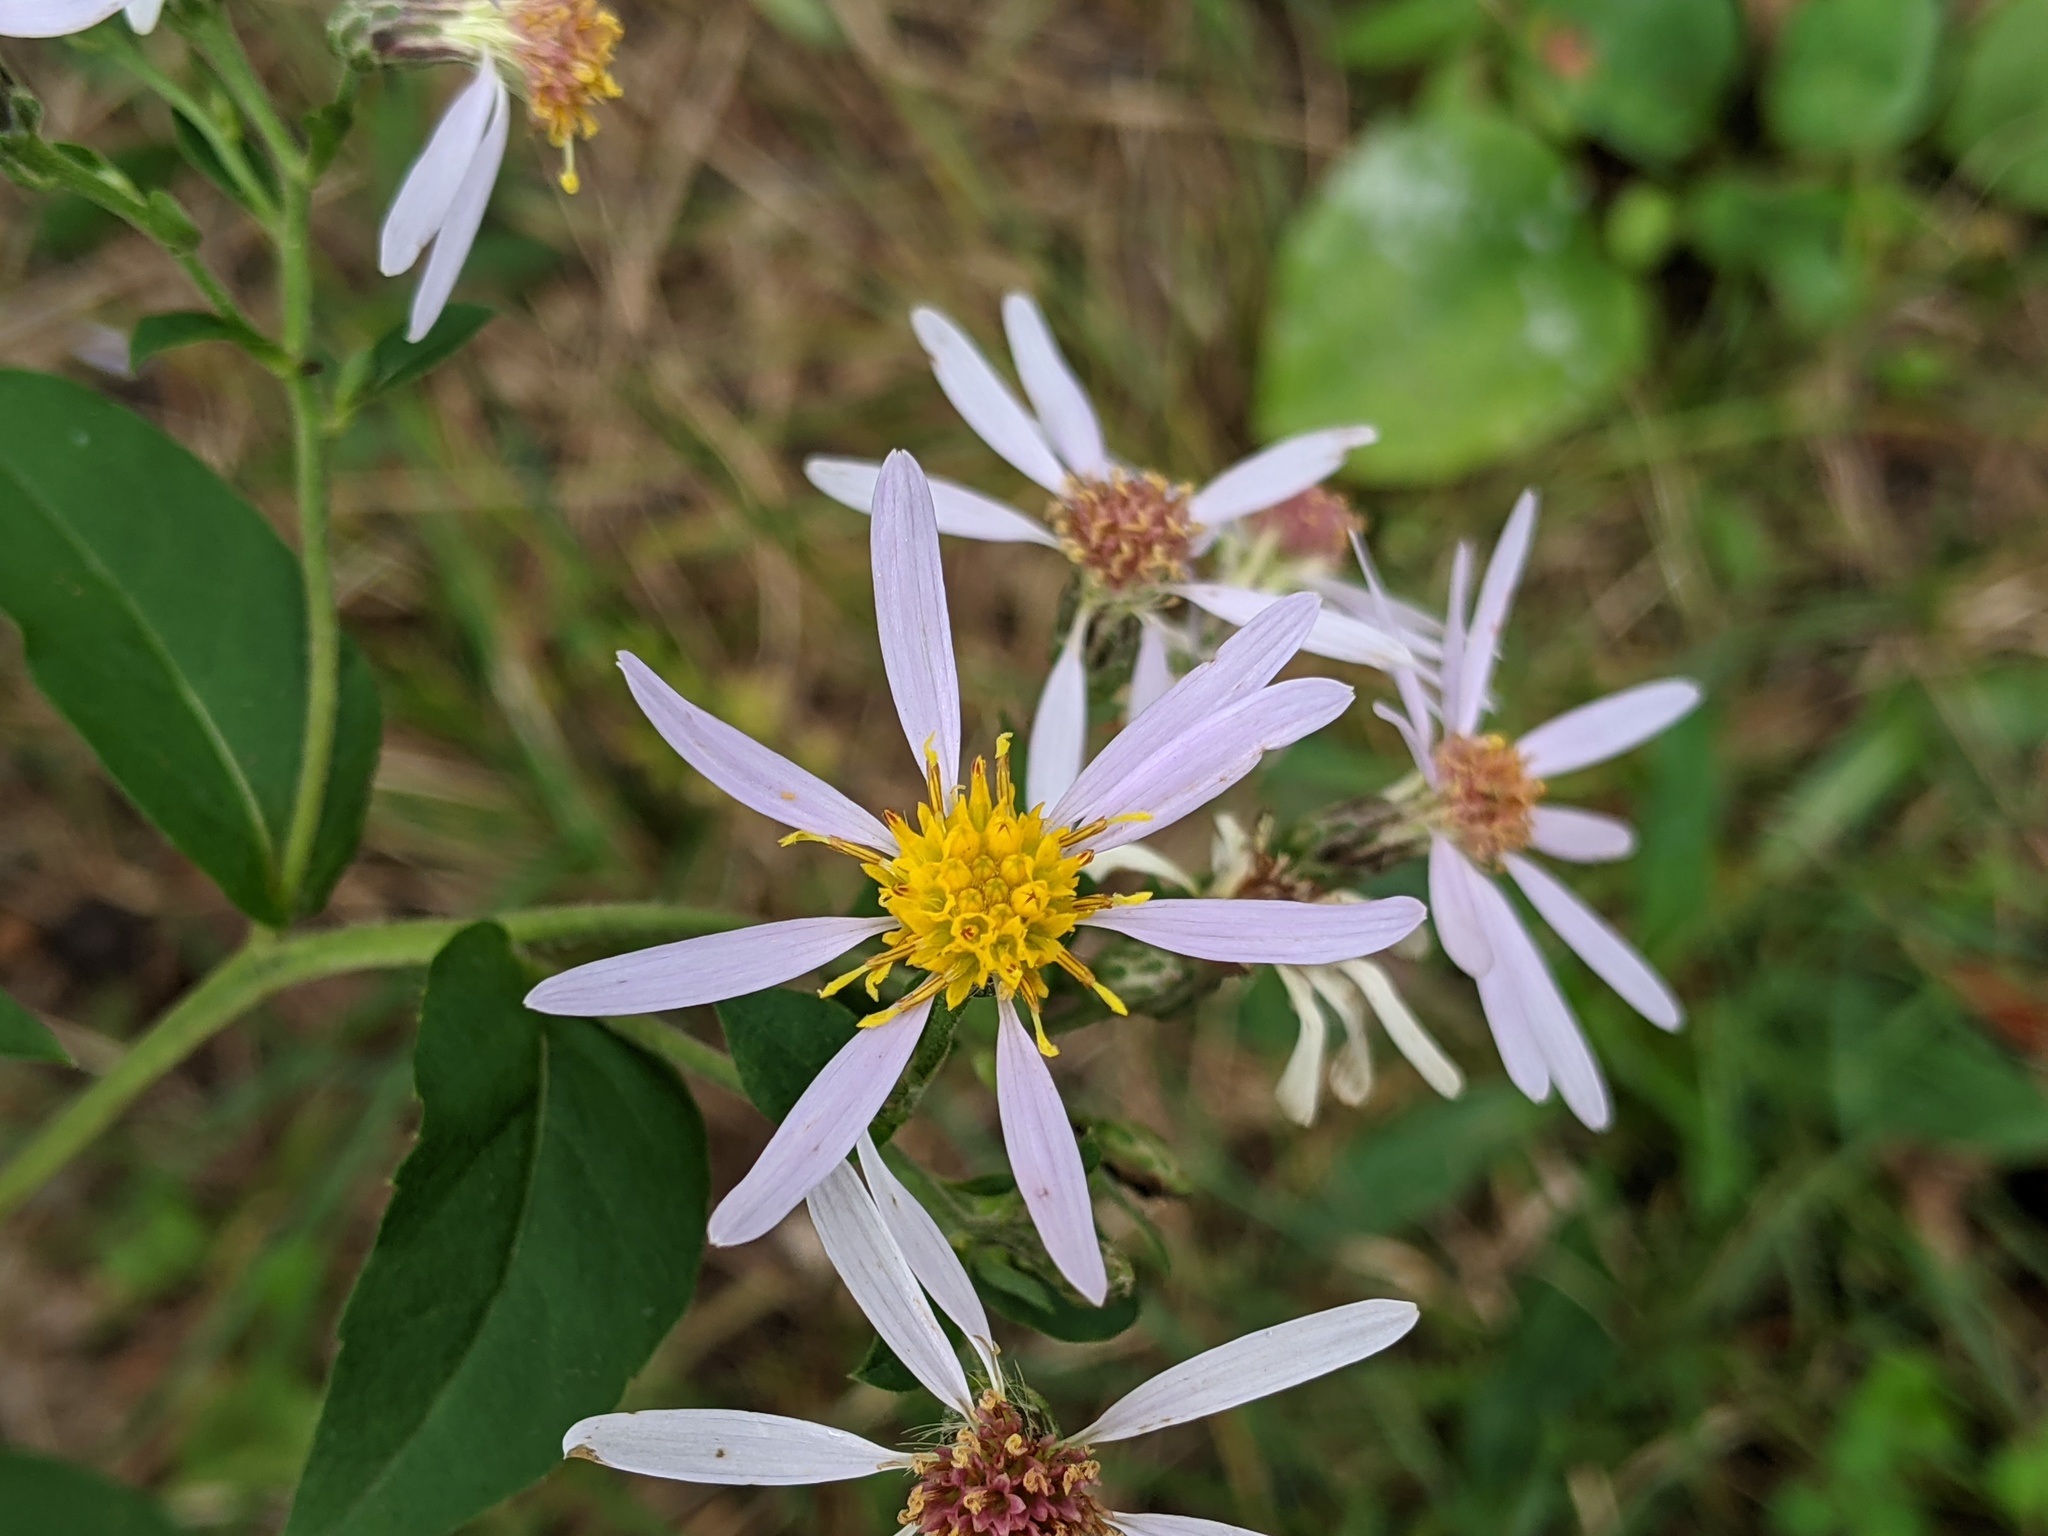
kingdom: Plantae
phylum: Tracheophyta
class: Magnoliopsida
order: Asterales
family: Asteraceae
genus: Eurybia
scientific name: Eurybia macrophylla
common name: Big-leaved aster
